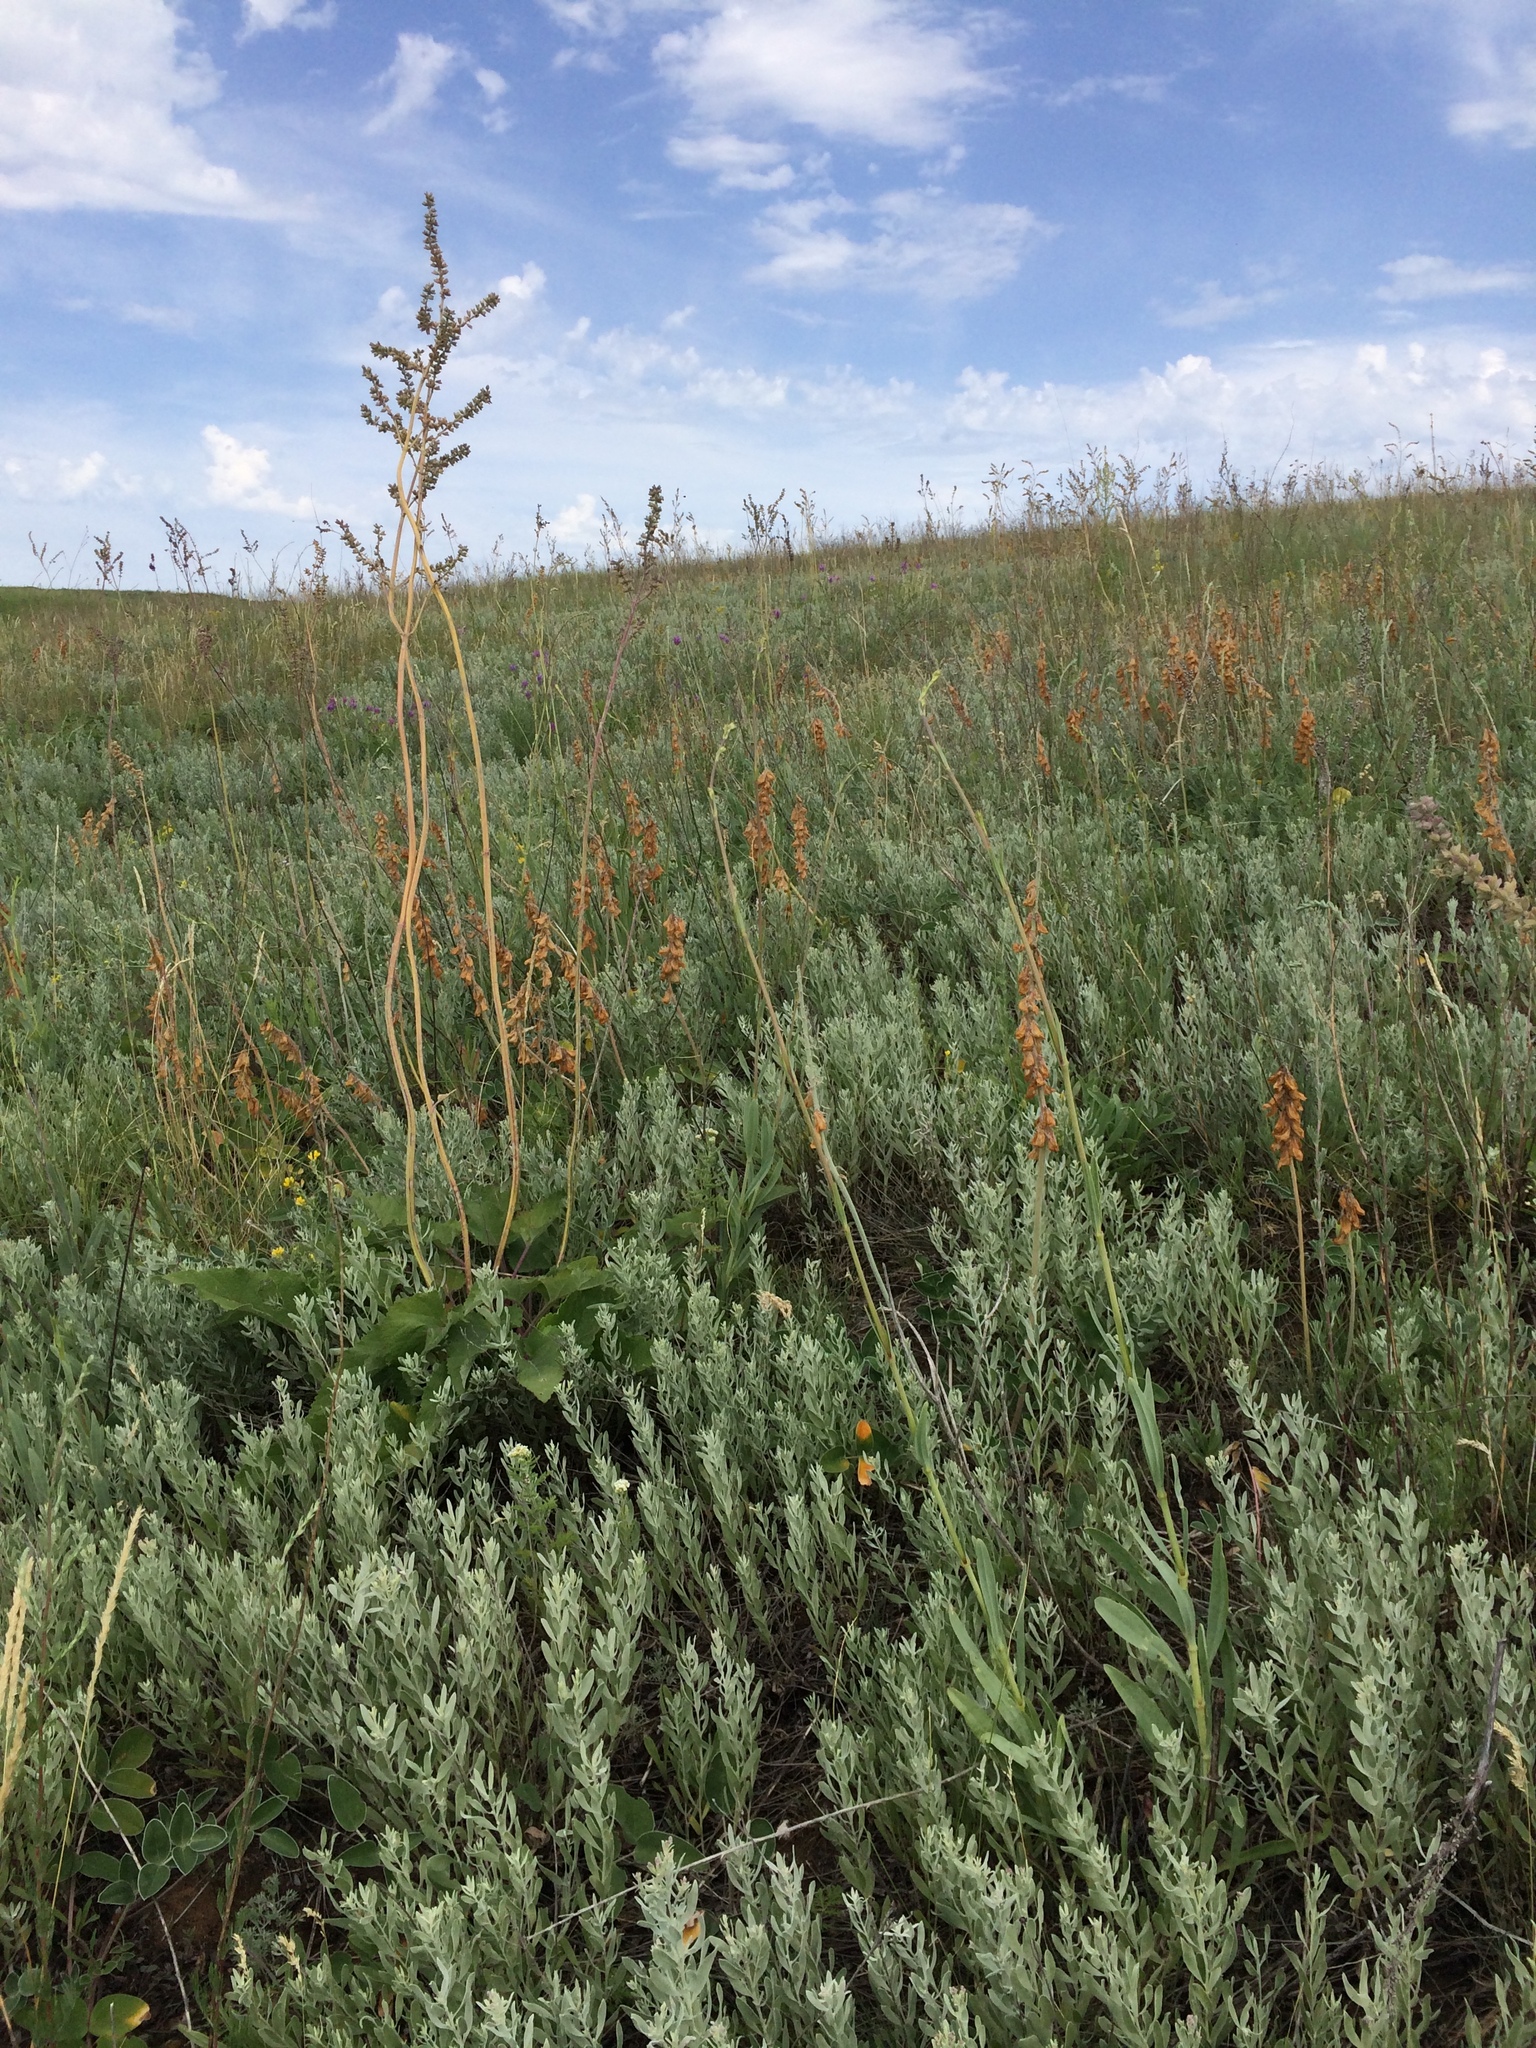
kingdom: Plantae
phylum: Tracheophyta
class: Magnoliopsida
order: Asterales
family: Asteraceae
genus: Galatella
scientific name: Galatella villosa
